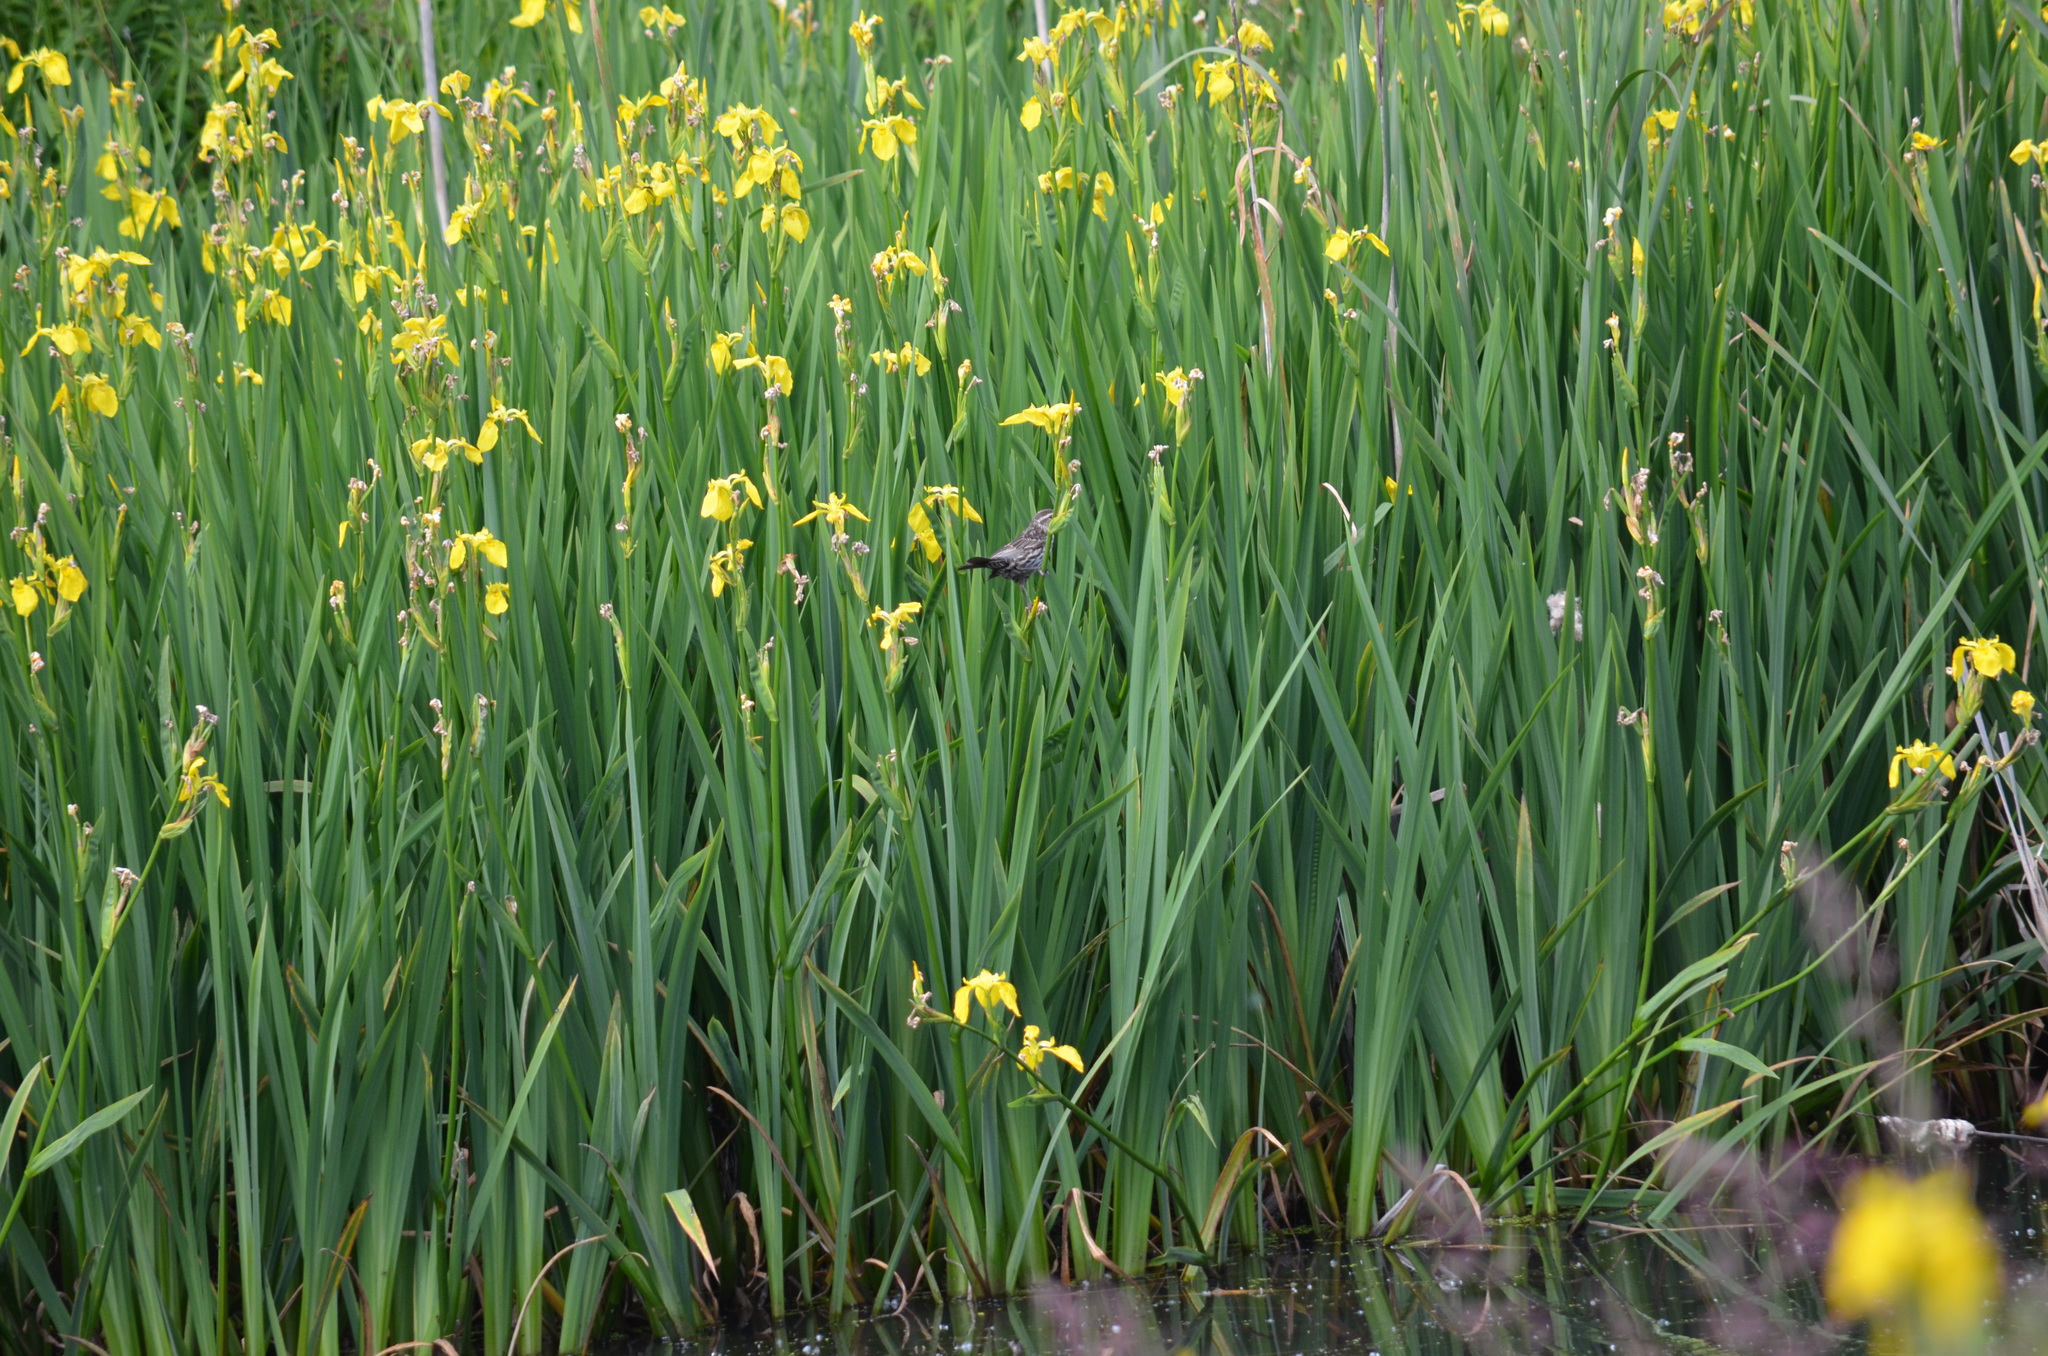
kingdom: Animalia
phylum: Chordata
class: Aves
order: Passeriformes
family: Icteridae
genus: Agelaius
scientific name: Agelaius phoeniceus
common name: Red-winged blackbird
